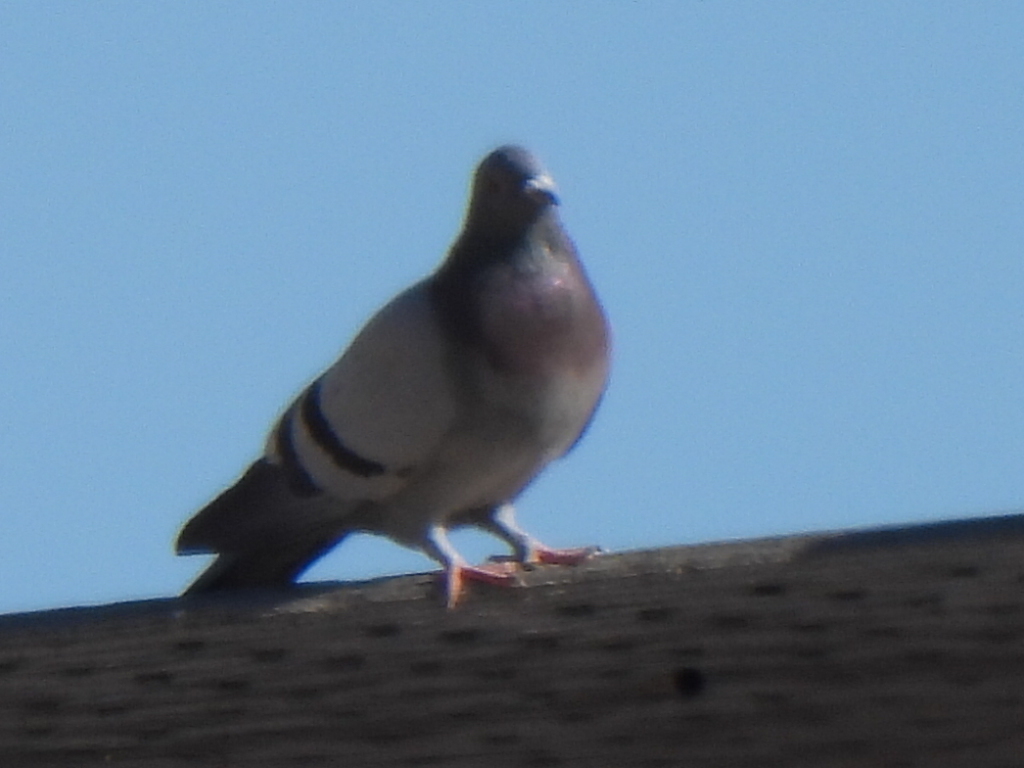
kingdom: Animalia
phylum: Chordata
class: Aves
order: Columbiformes
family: Columbidae
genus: Columba
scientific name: Columba livia
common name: Rock pigeon
